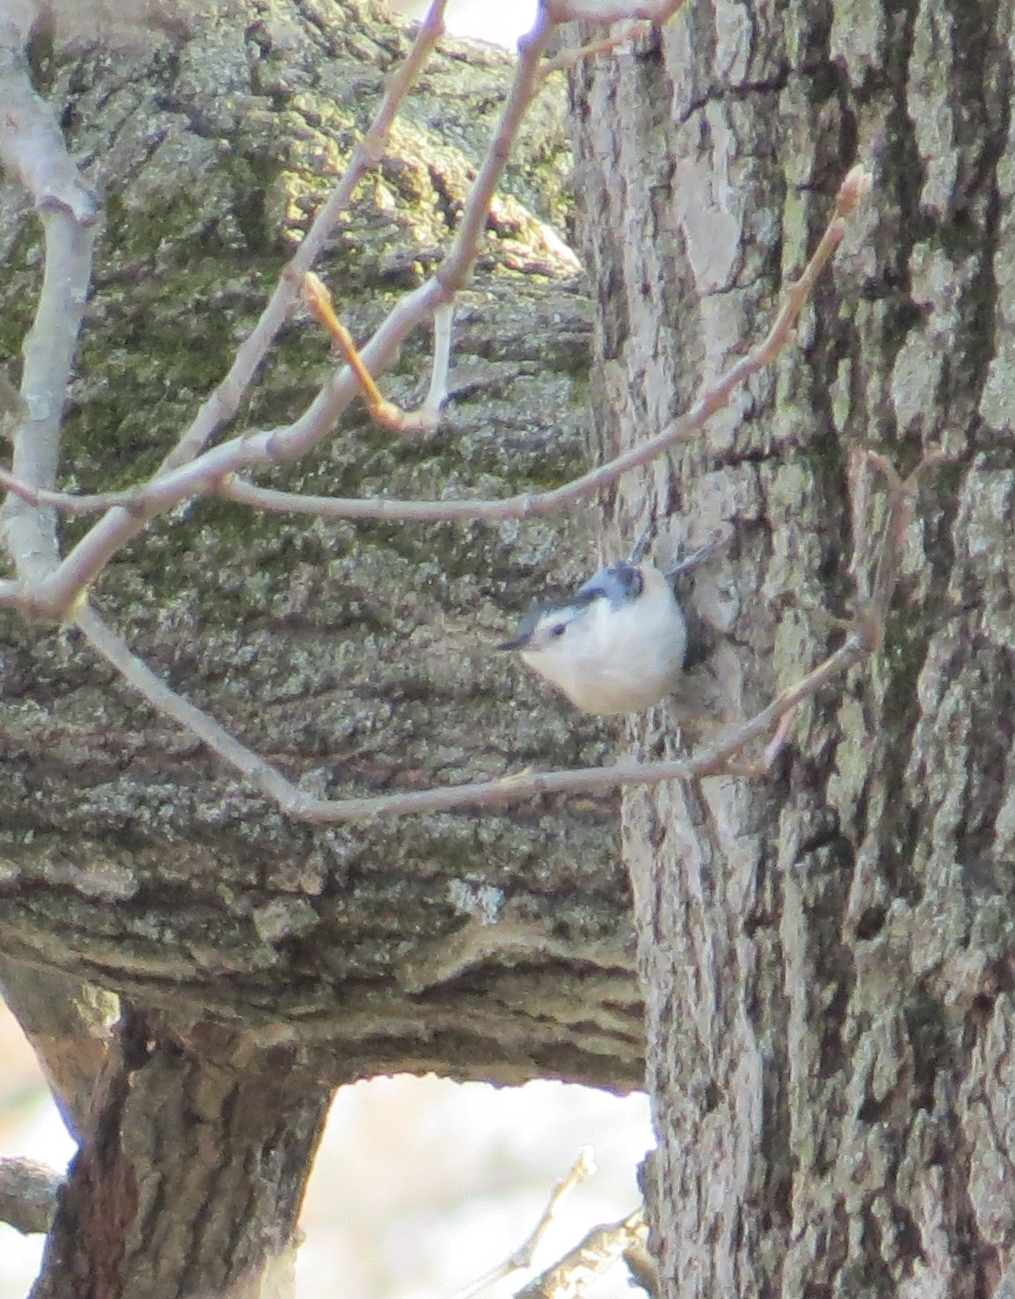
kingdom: Animalia
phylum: Chordata
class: Aves
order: Passeriformes
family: Sittidae
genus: Sitta
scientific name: Sitta carolinensis
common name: White-breasted nuthatch
